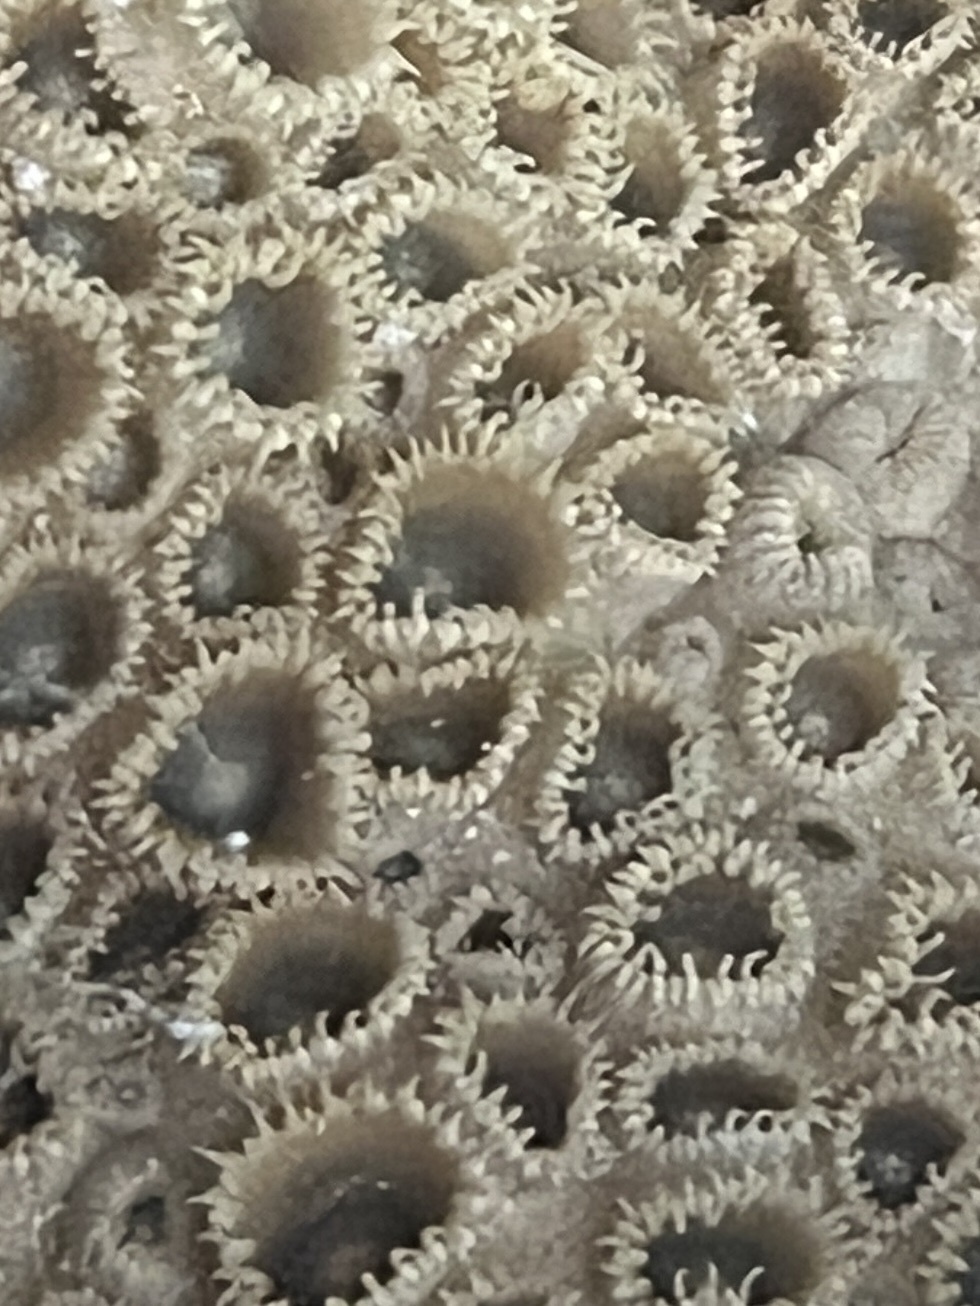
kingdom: Animalia
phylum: Cnidaria
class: Anthozoa
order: Zoantharia
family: Sphenopidae
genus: Palythoa
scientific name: Palythoa caribaeorum
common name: Encrusting colonial anemone
